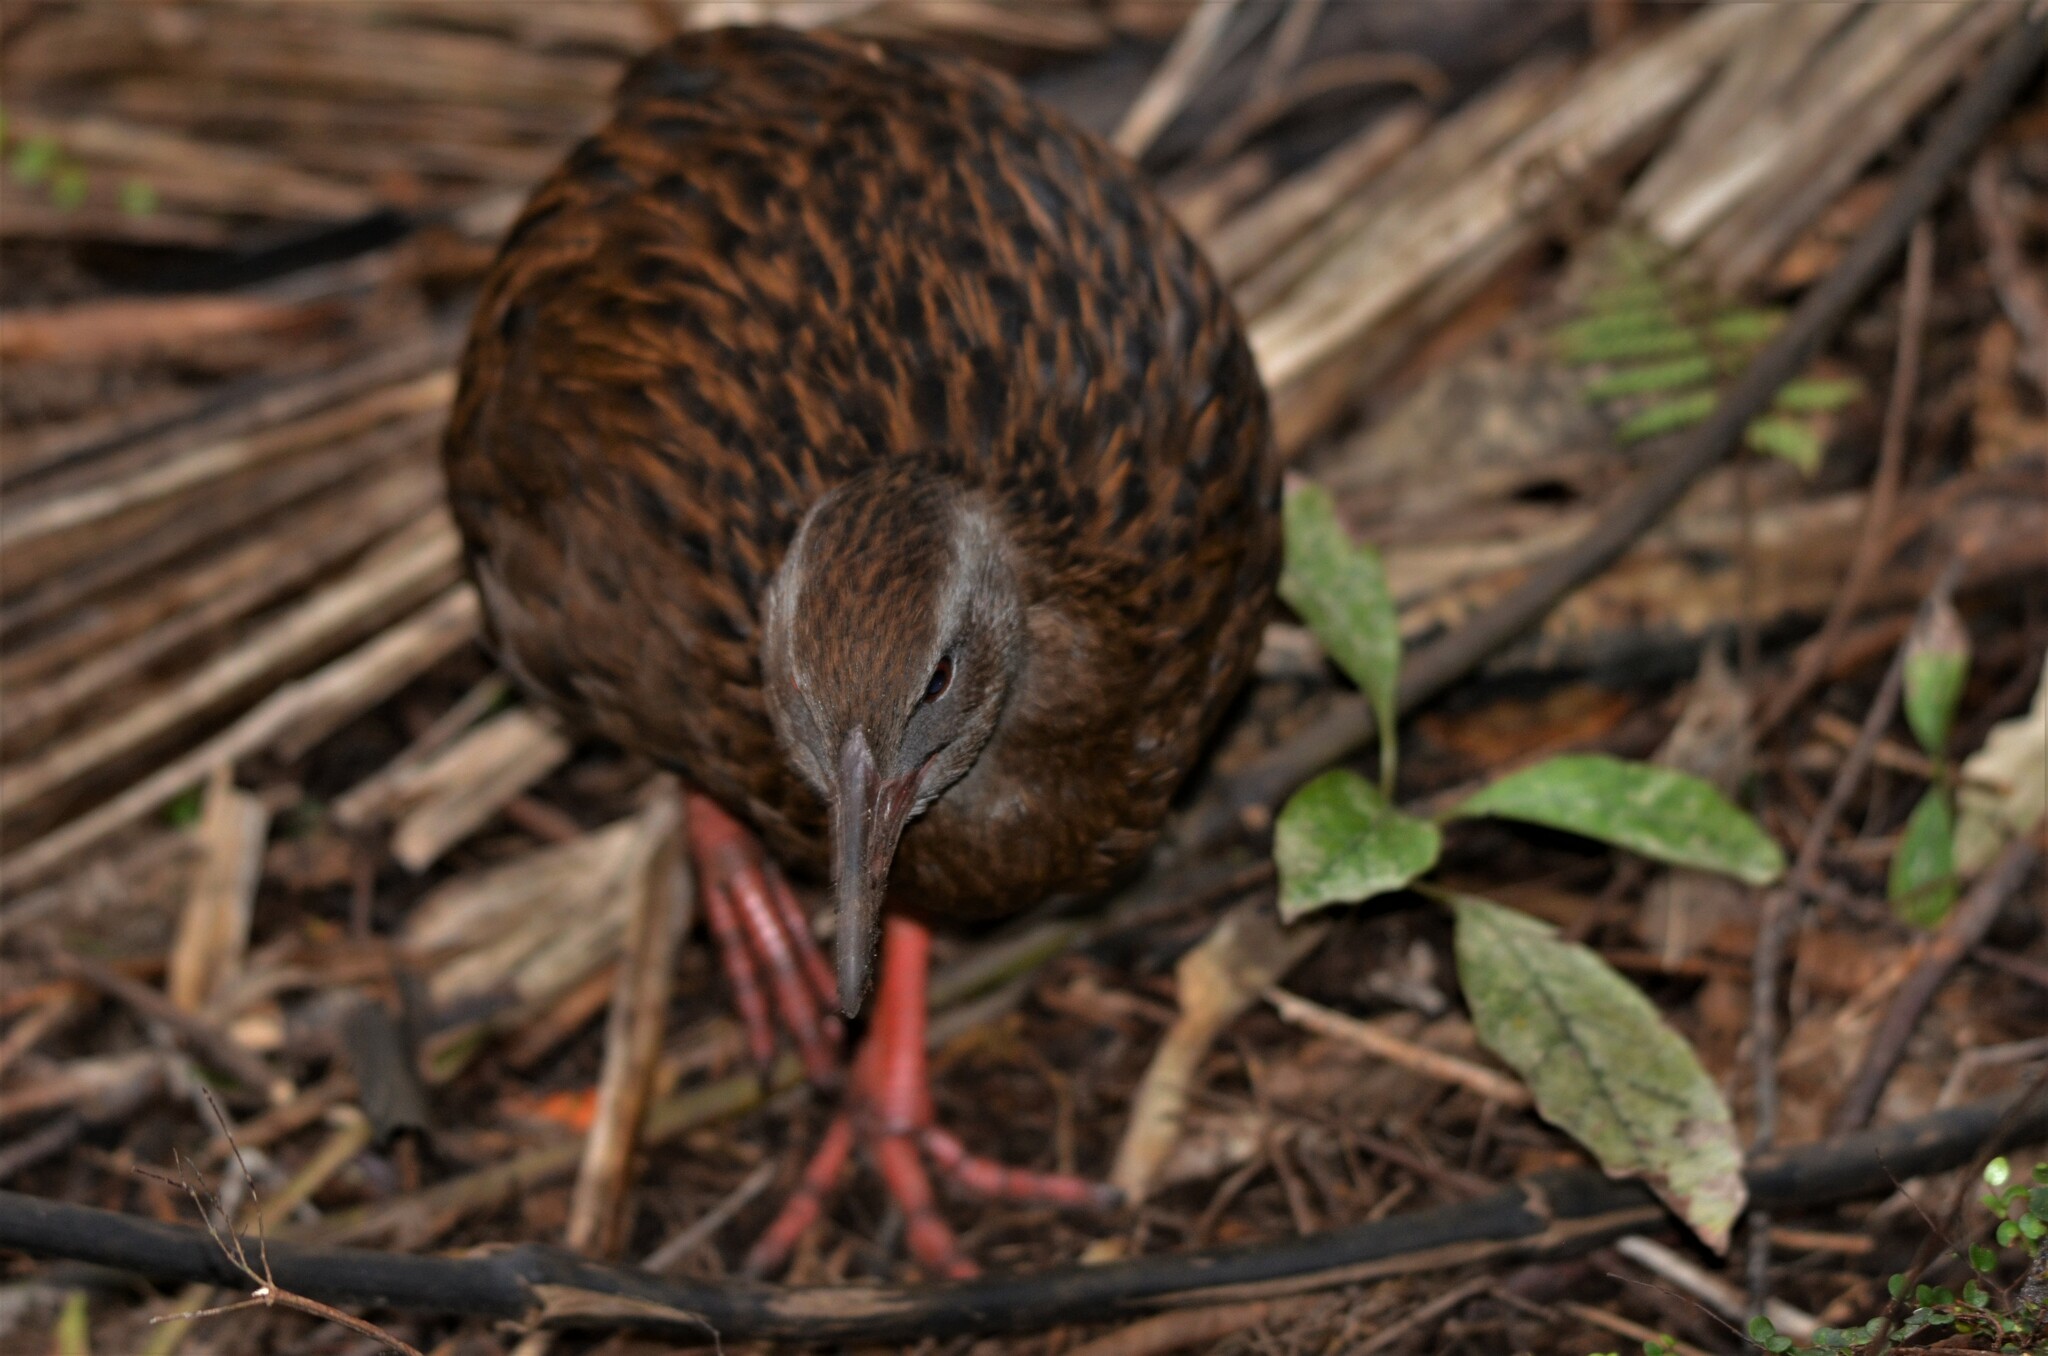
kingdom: Animalia
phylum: Chordata
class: Aves
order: Gruiformes
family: Rallidae
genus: Gallirallus
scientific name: Gallirallus australis
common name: Weka
